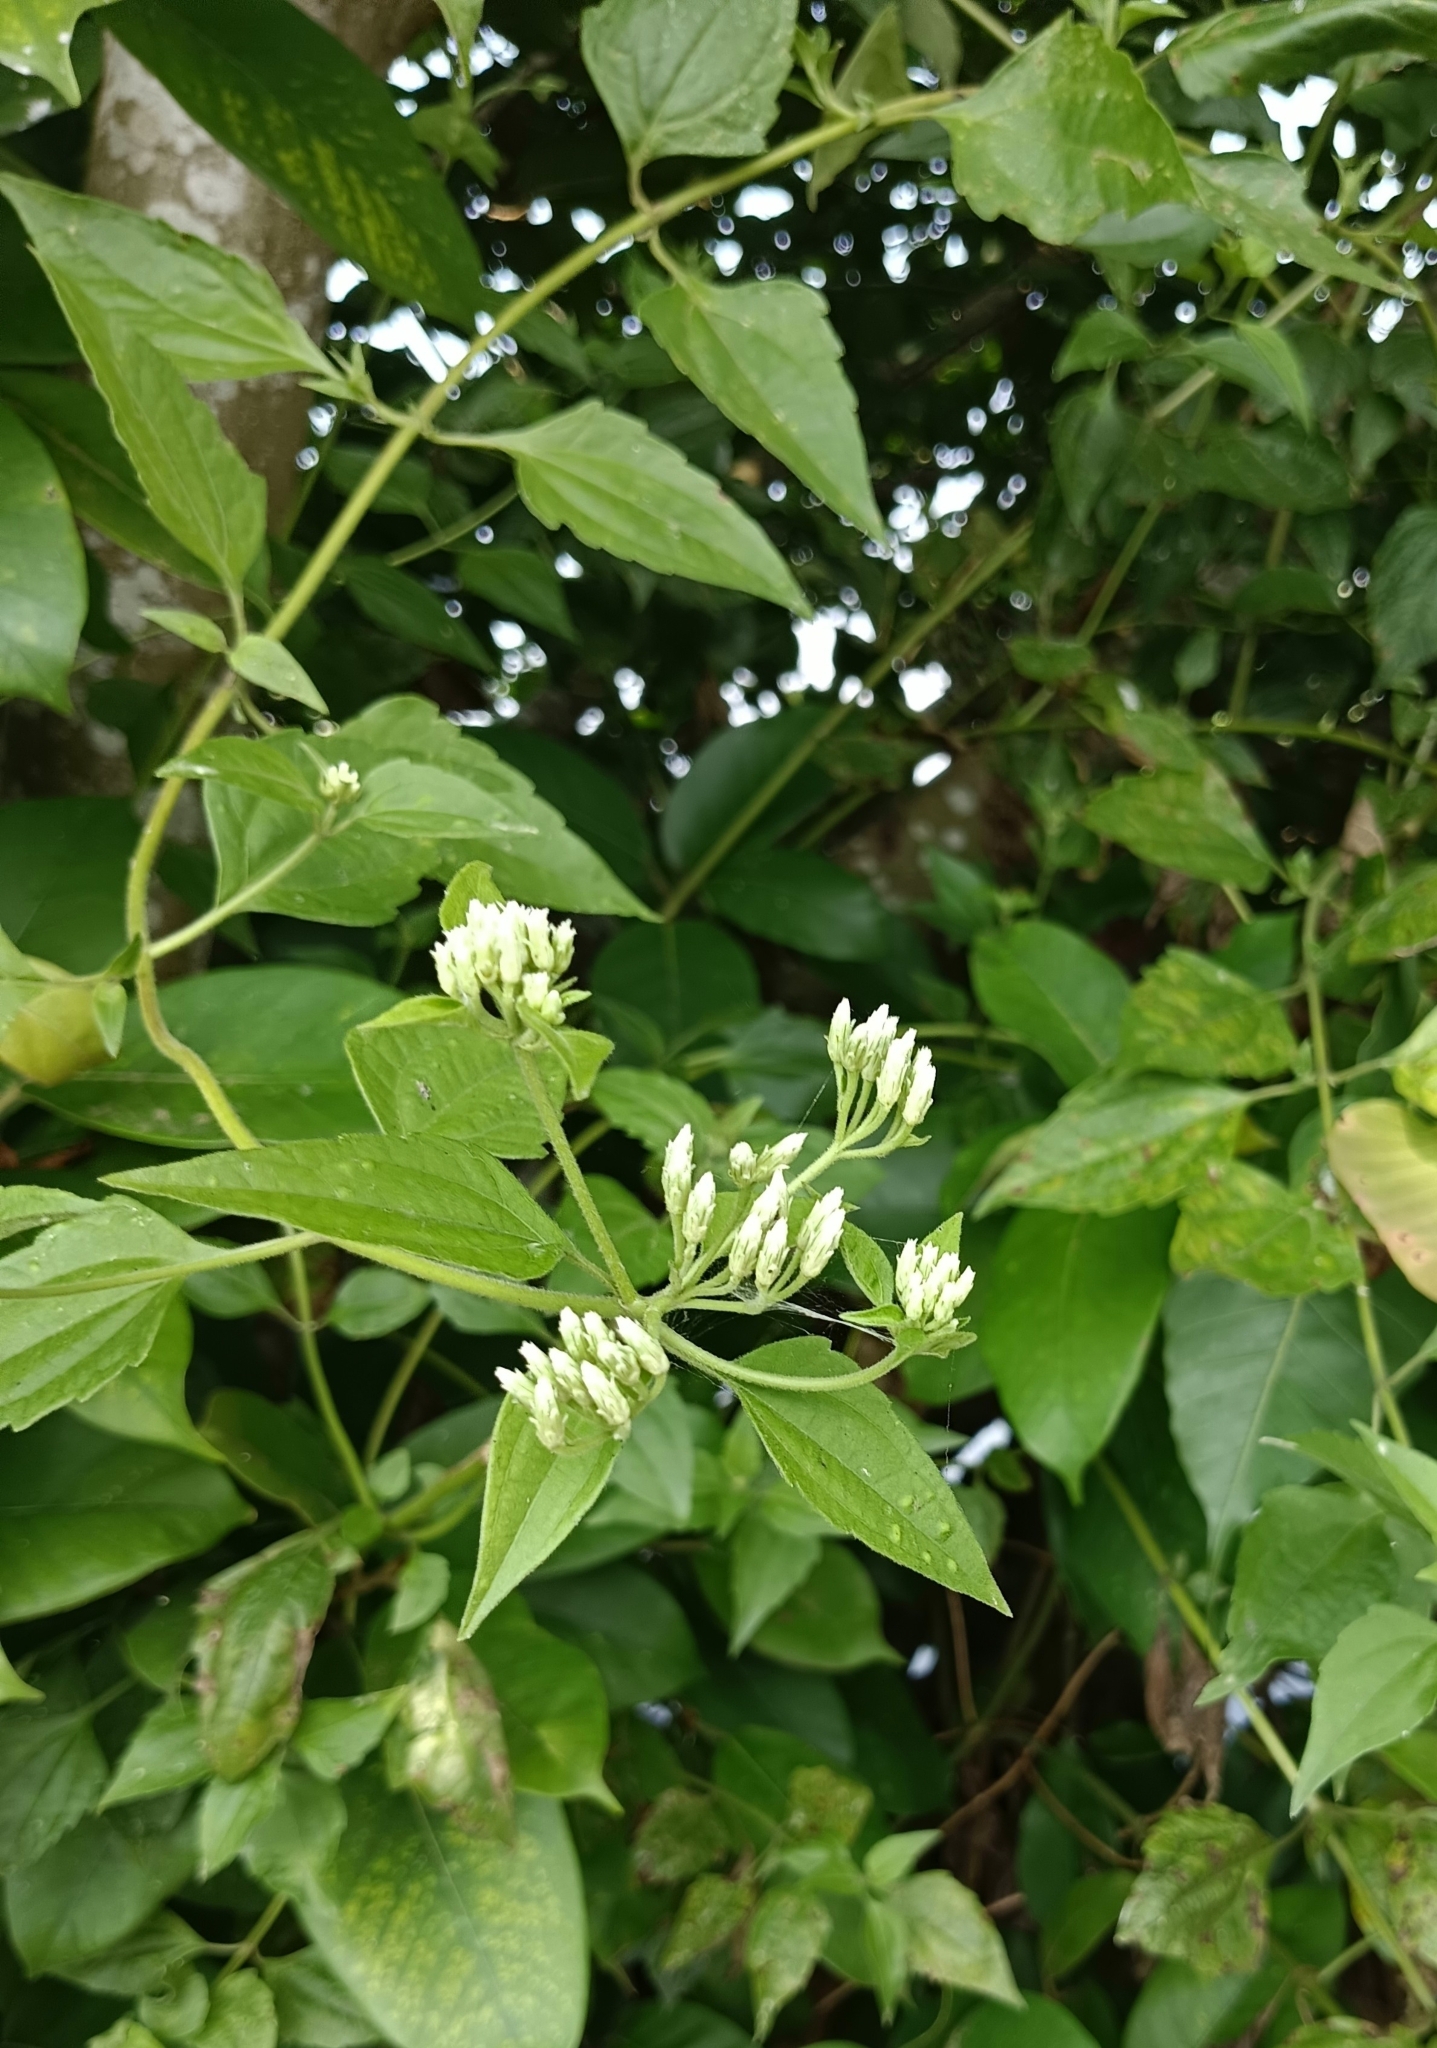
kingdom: Plantae
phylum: Tracheophyta
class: Magnoliopsida
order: Asterales
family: Asteraceae
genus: Chromolaena
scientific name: Chromolaena odorata
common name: Siamweed
